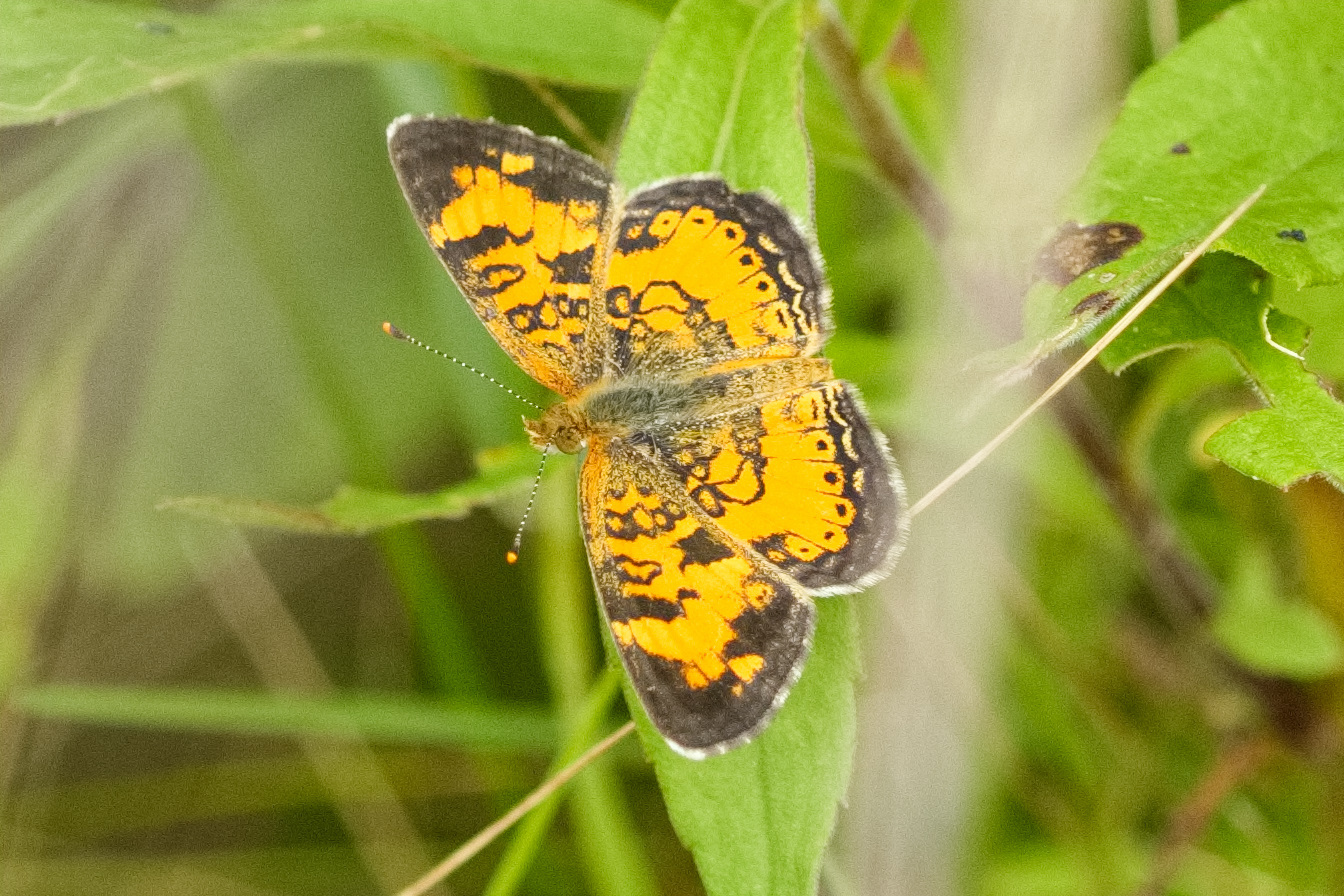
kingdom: Animalia
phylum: Arthropoda
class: Insecta
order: Lepidoptera
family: Nymphalidae
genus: Phyciodes
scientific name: Phyciodes tharos
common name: Pearl crescent
